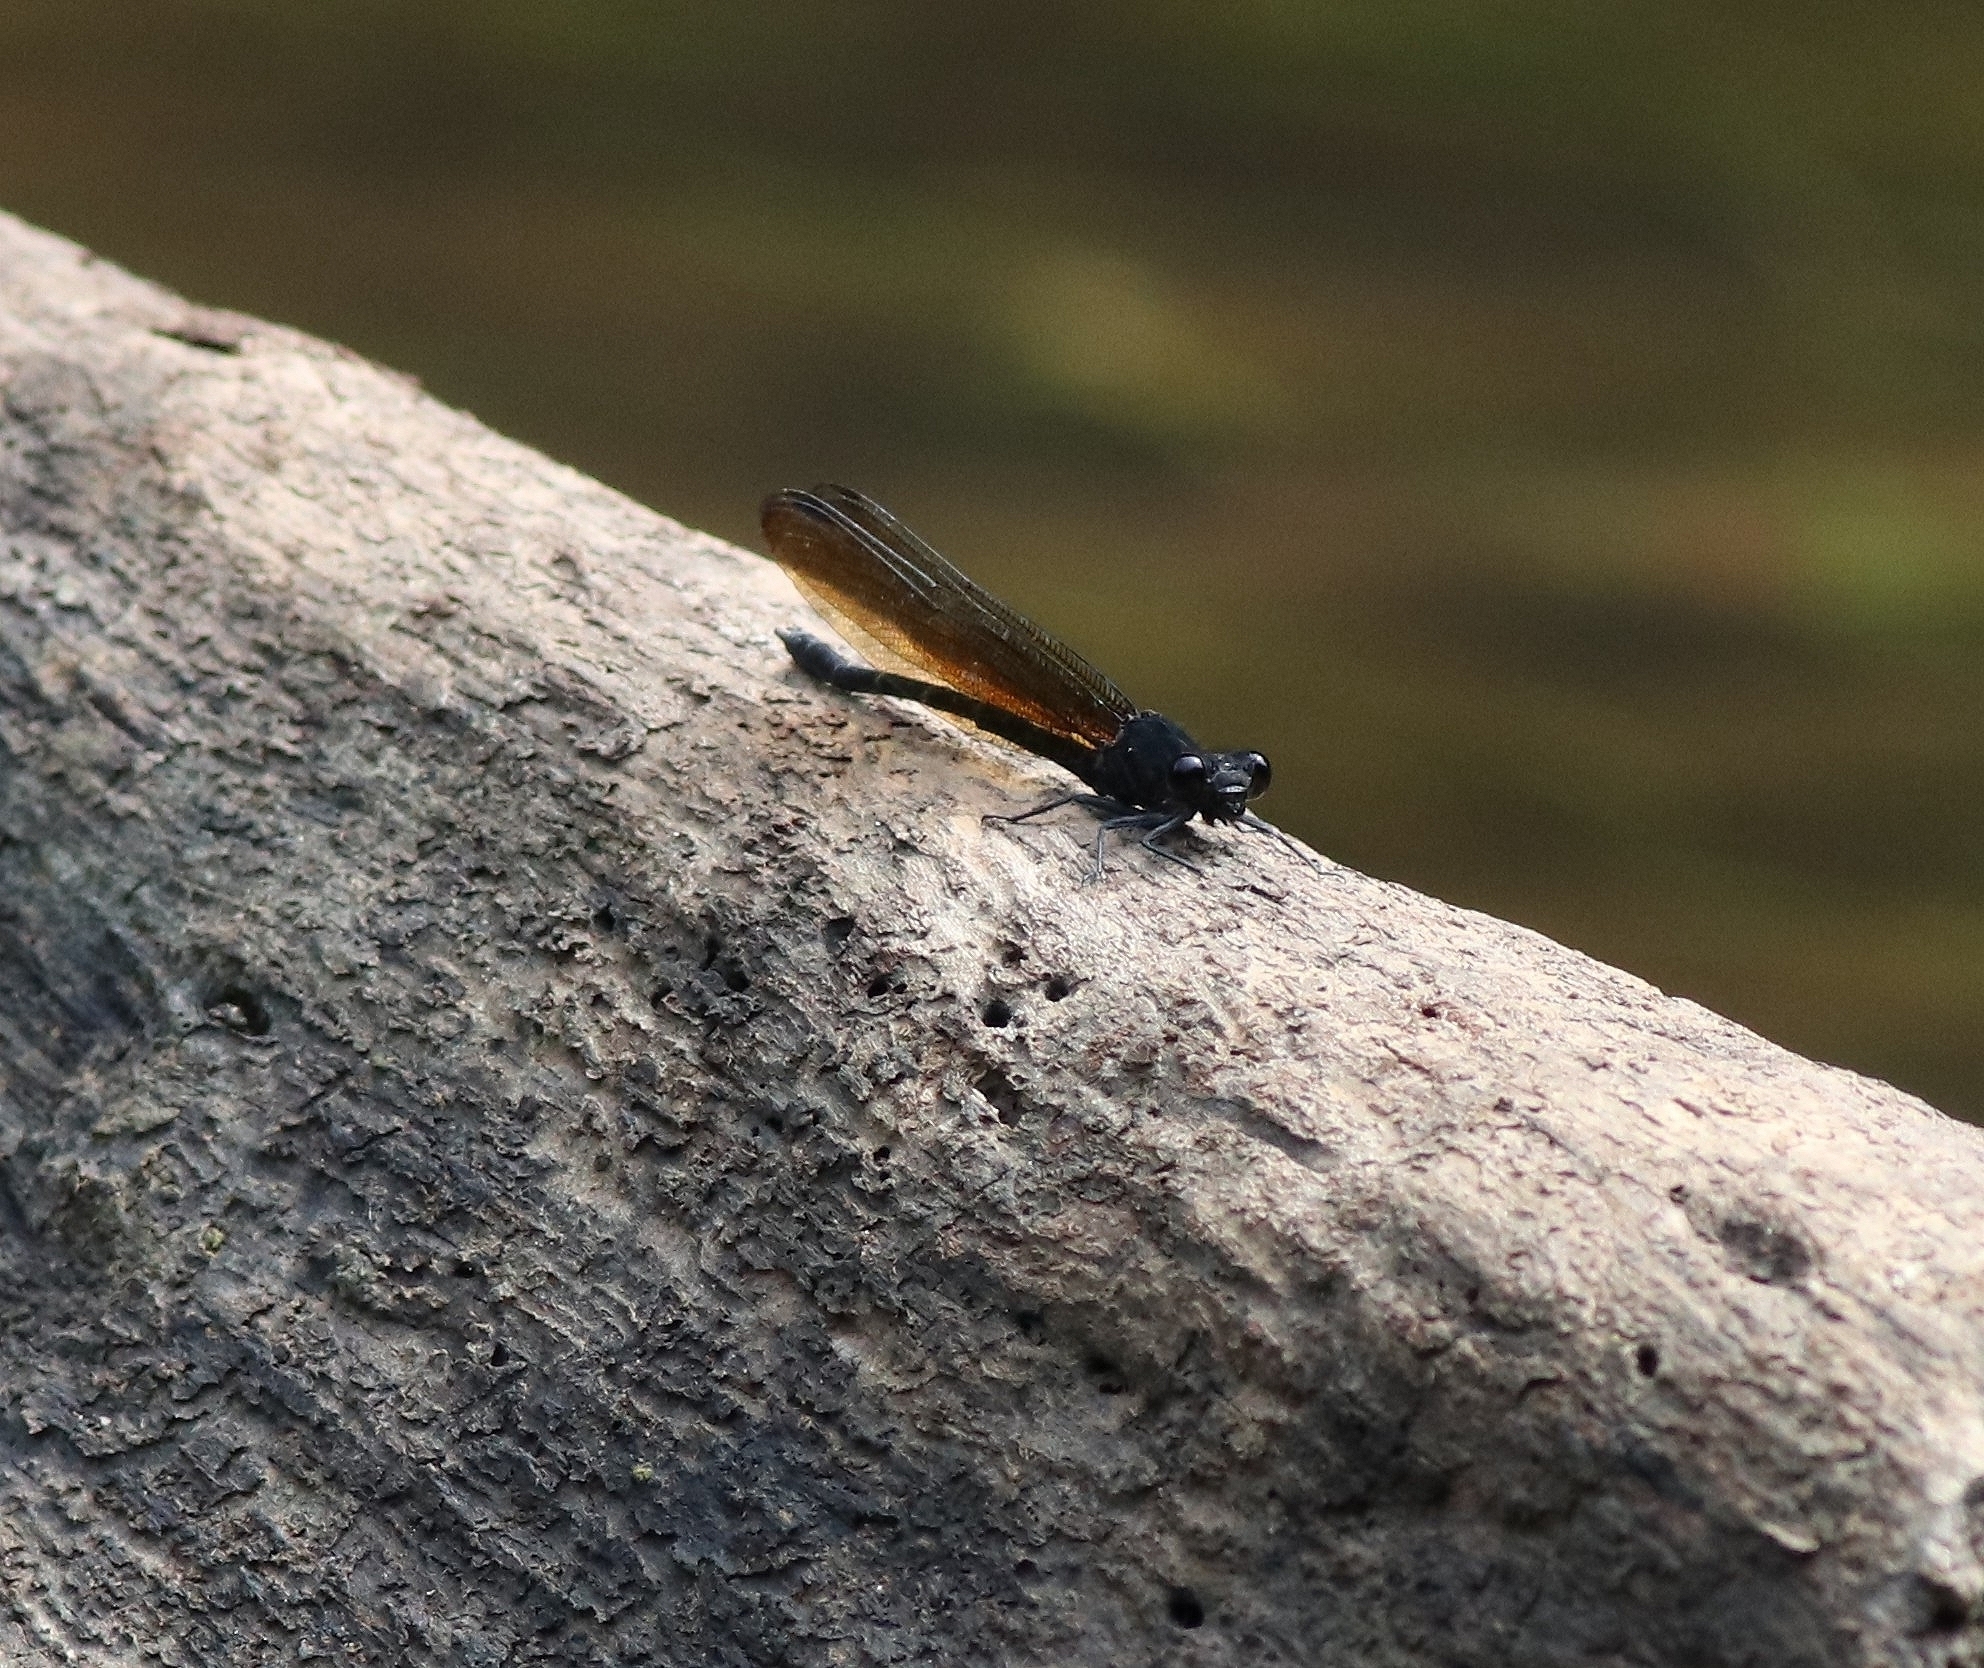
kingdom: Animalia
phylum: Arthropoda
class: Insecta
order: Odonata
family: Euphaeidae
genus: Dysphaea
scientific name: Dysphaea ethela
